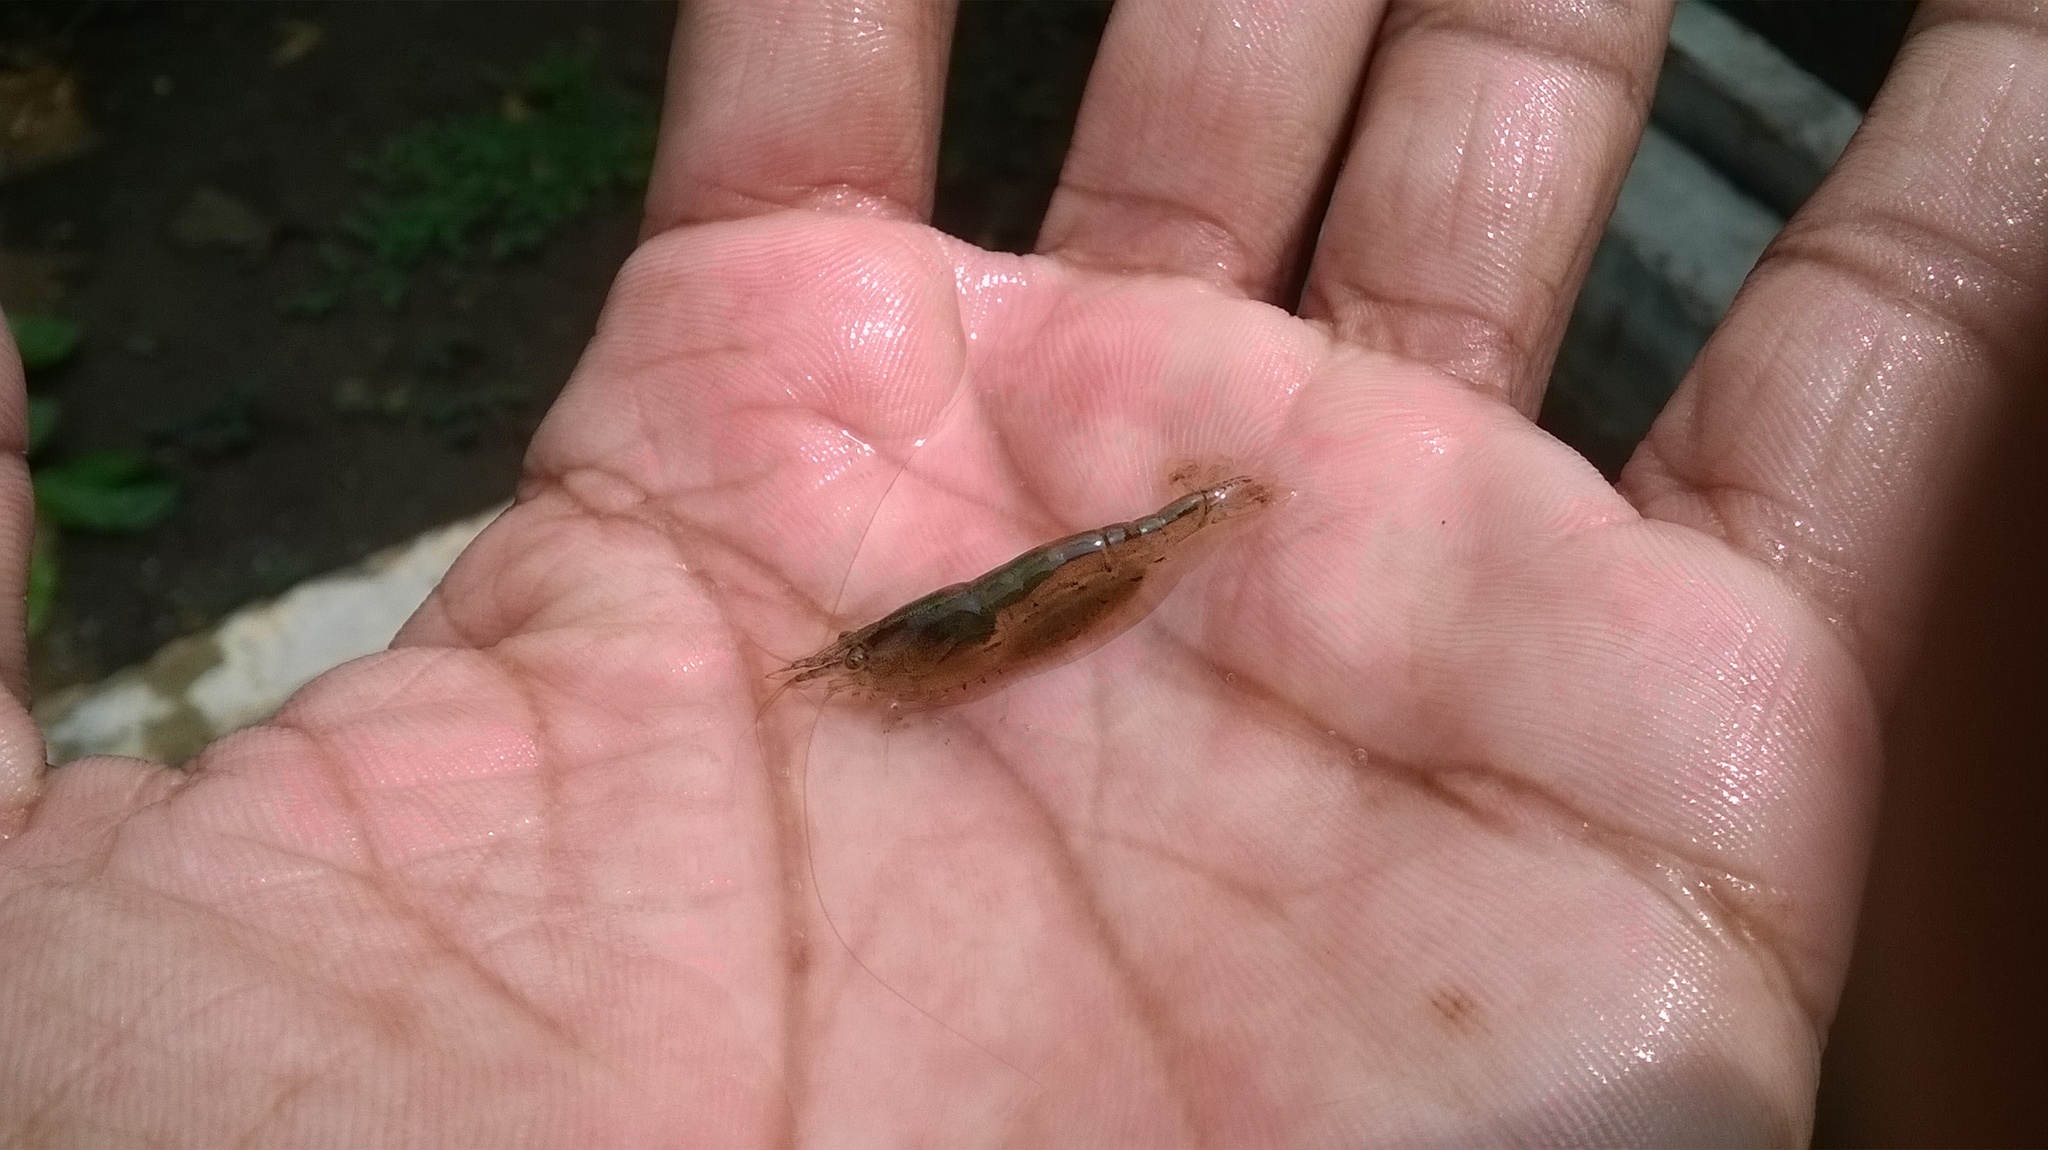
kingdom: Animalia
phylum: Arthropoda
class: Malacostraca
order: Decapoda
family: Atyidae
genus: Caridina
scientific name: Caridina babaulti
